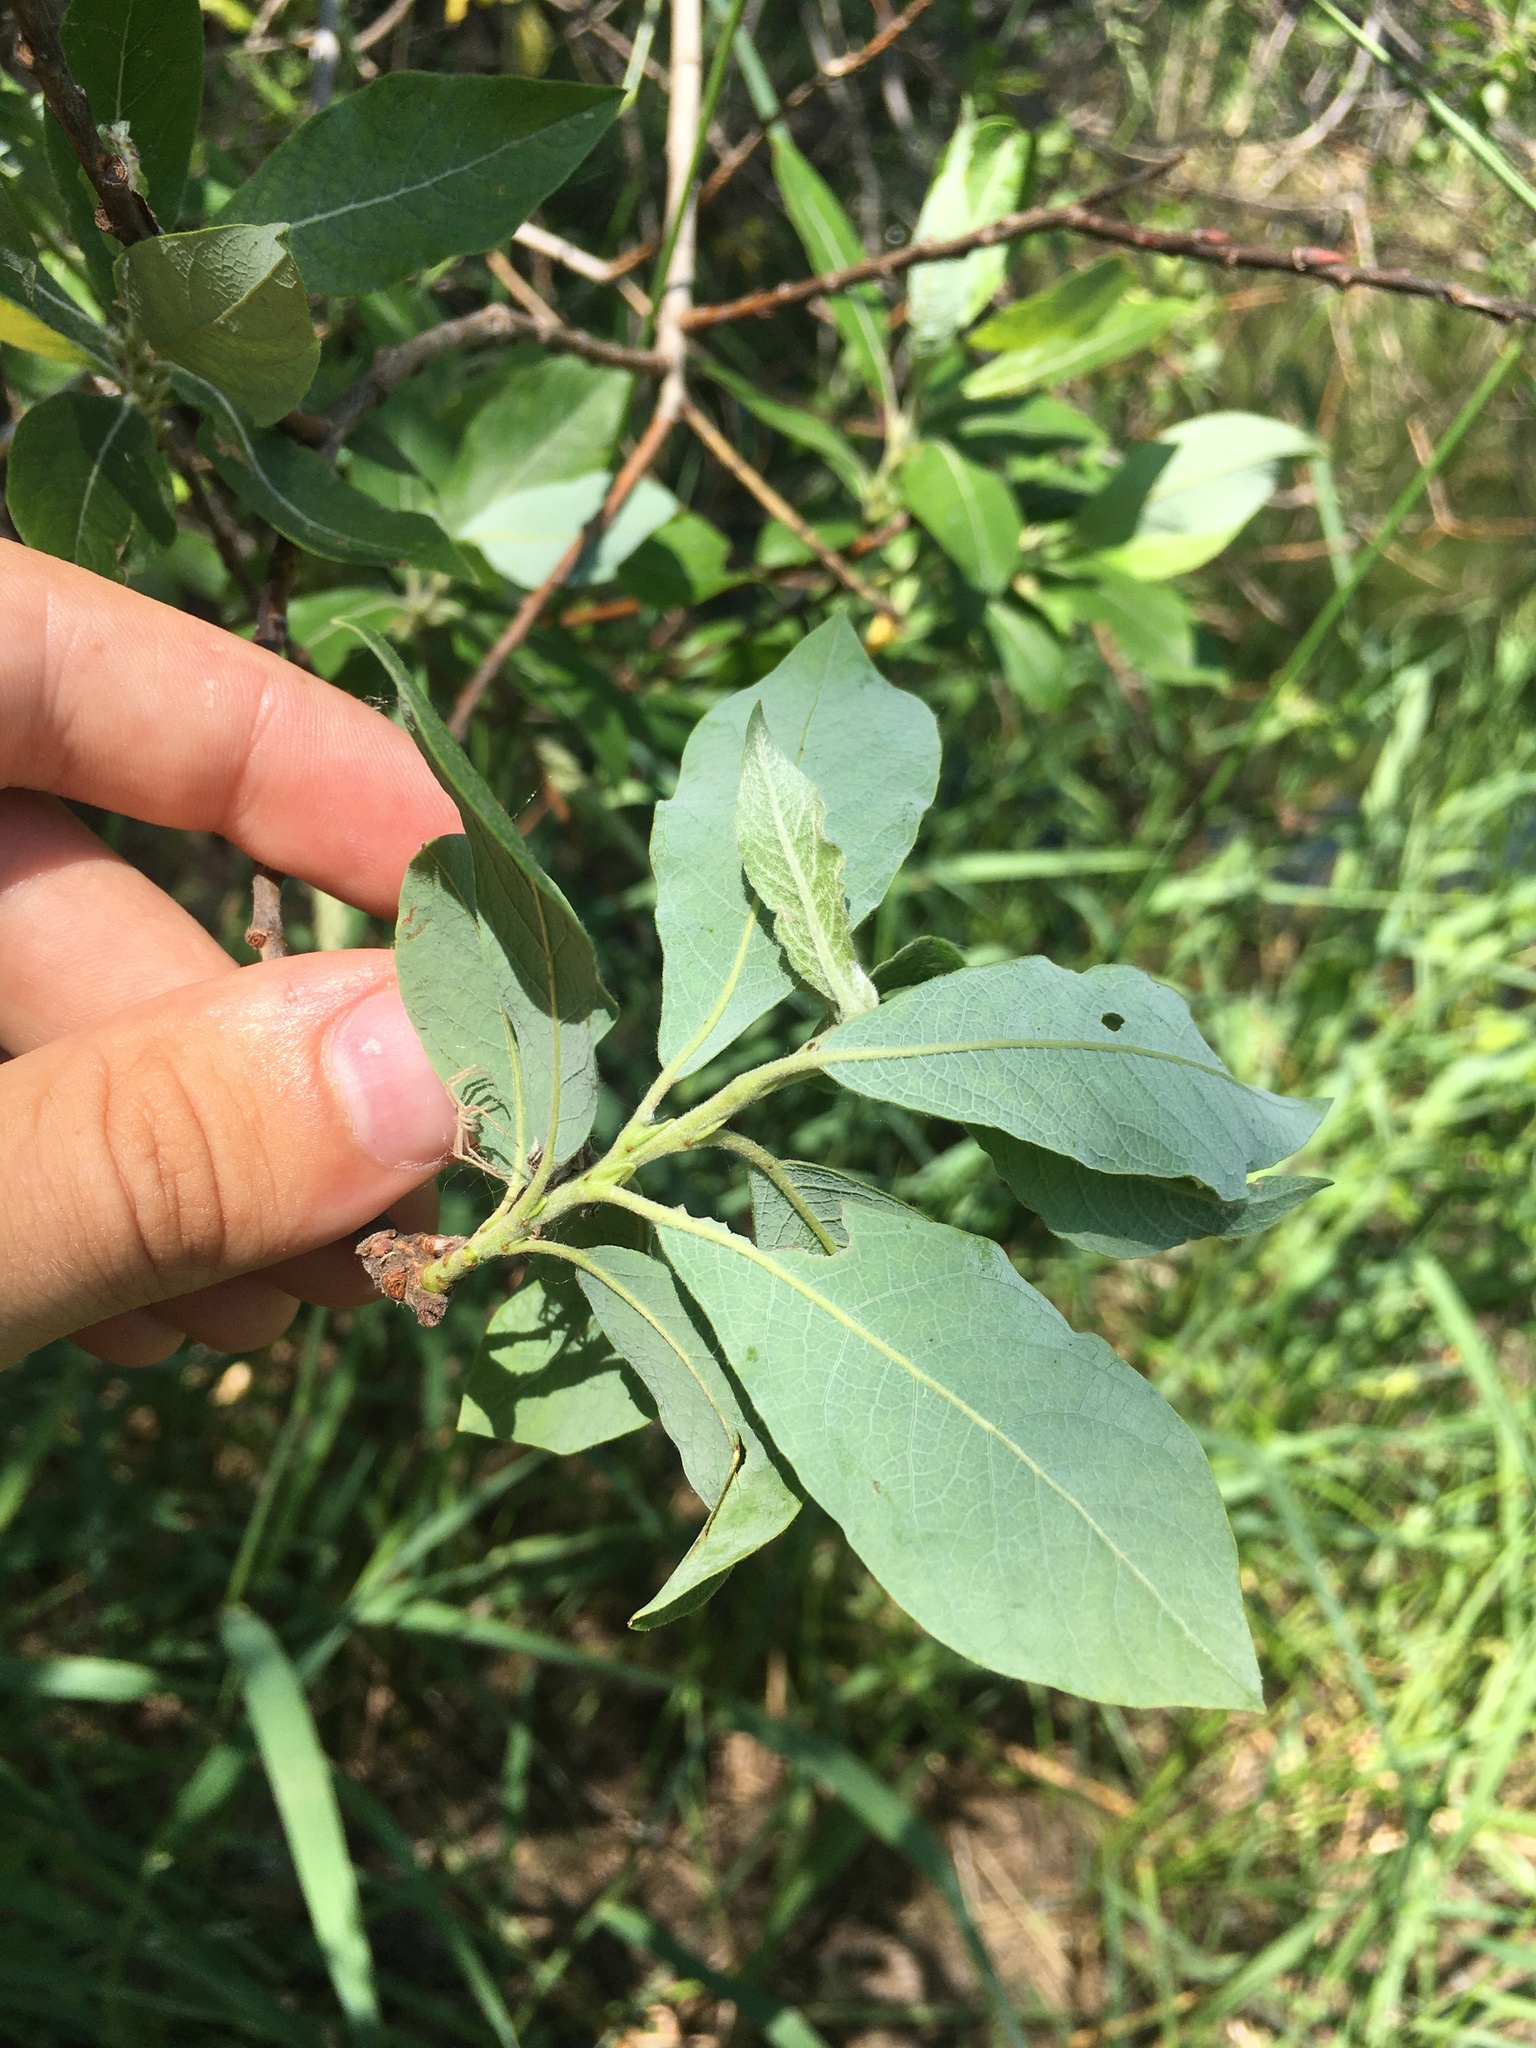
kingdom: Plantae
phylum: Tracheophyta
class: Magnoliopsida
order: Malpighiales
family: Salicaceae
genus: Salix
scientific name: Salix bebbiana
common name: Bebb's willow
